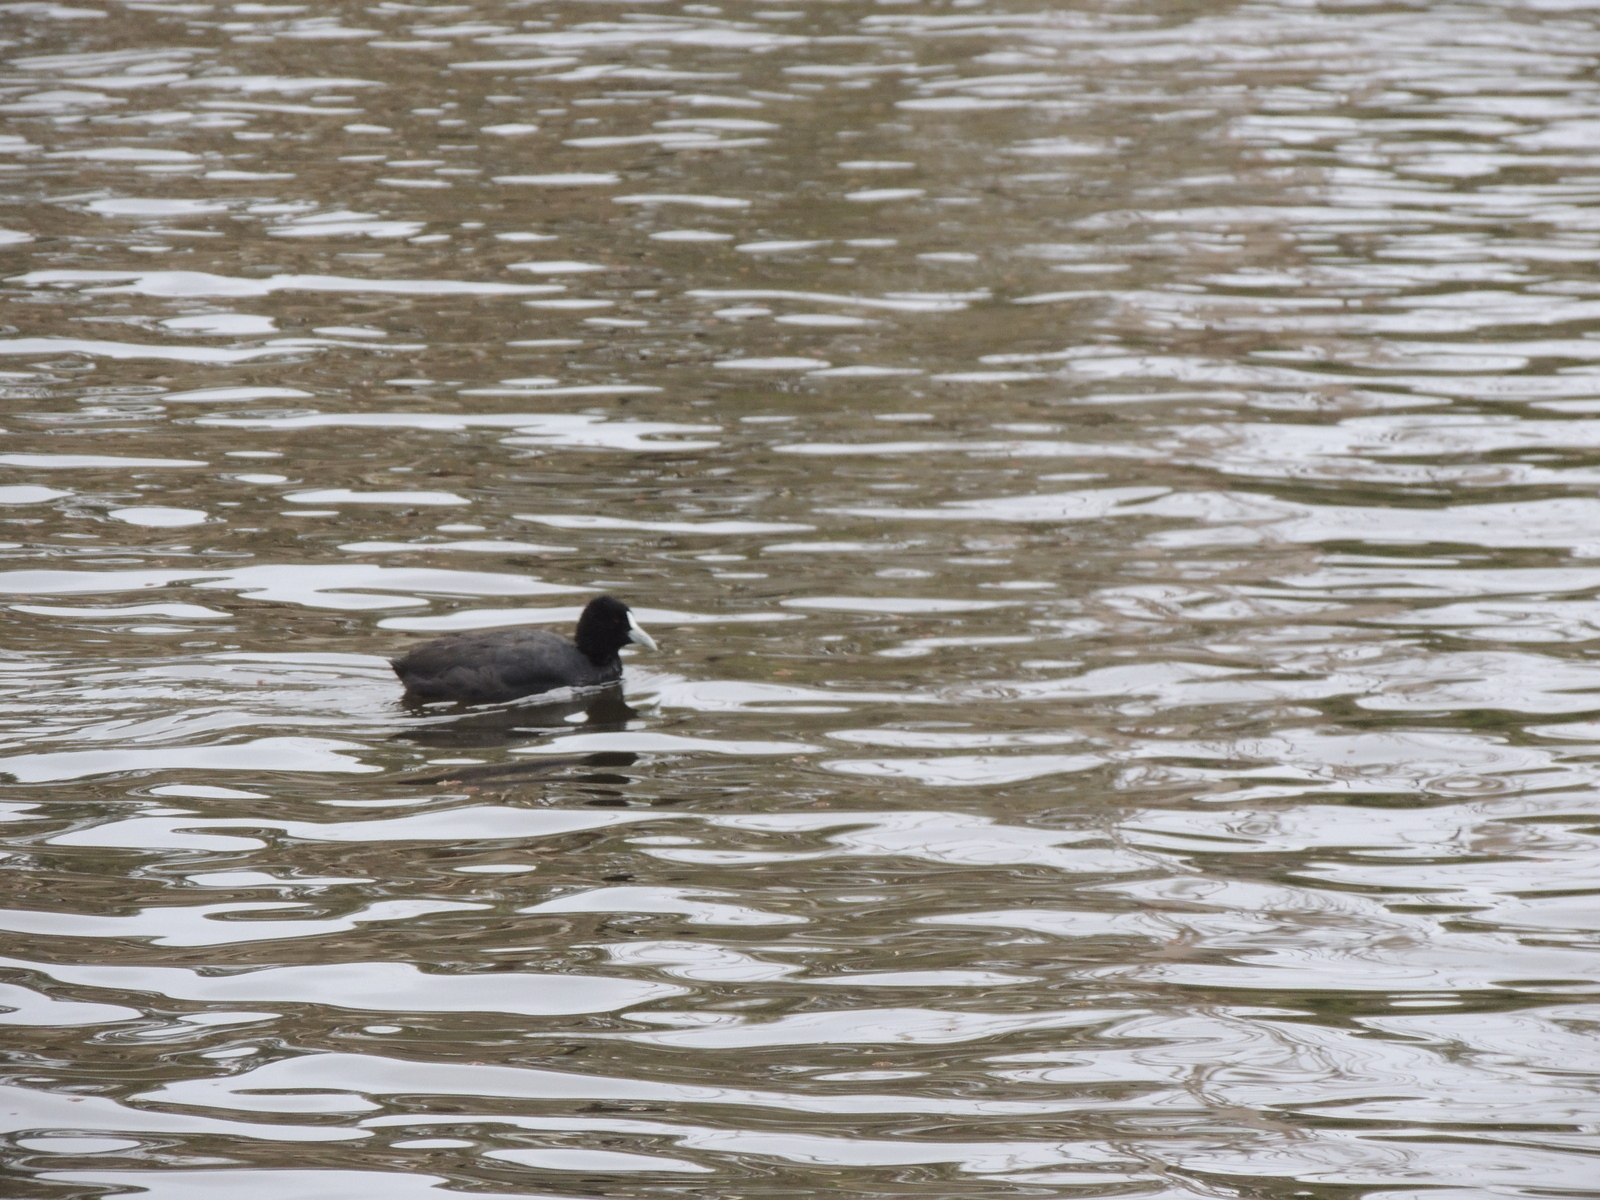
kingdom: Animalia
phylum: Chordata
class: Aves
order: Gruiformes
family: Rallidae
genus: Fulica
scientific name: Fulica atra
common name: Eurasian coot
